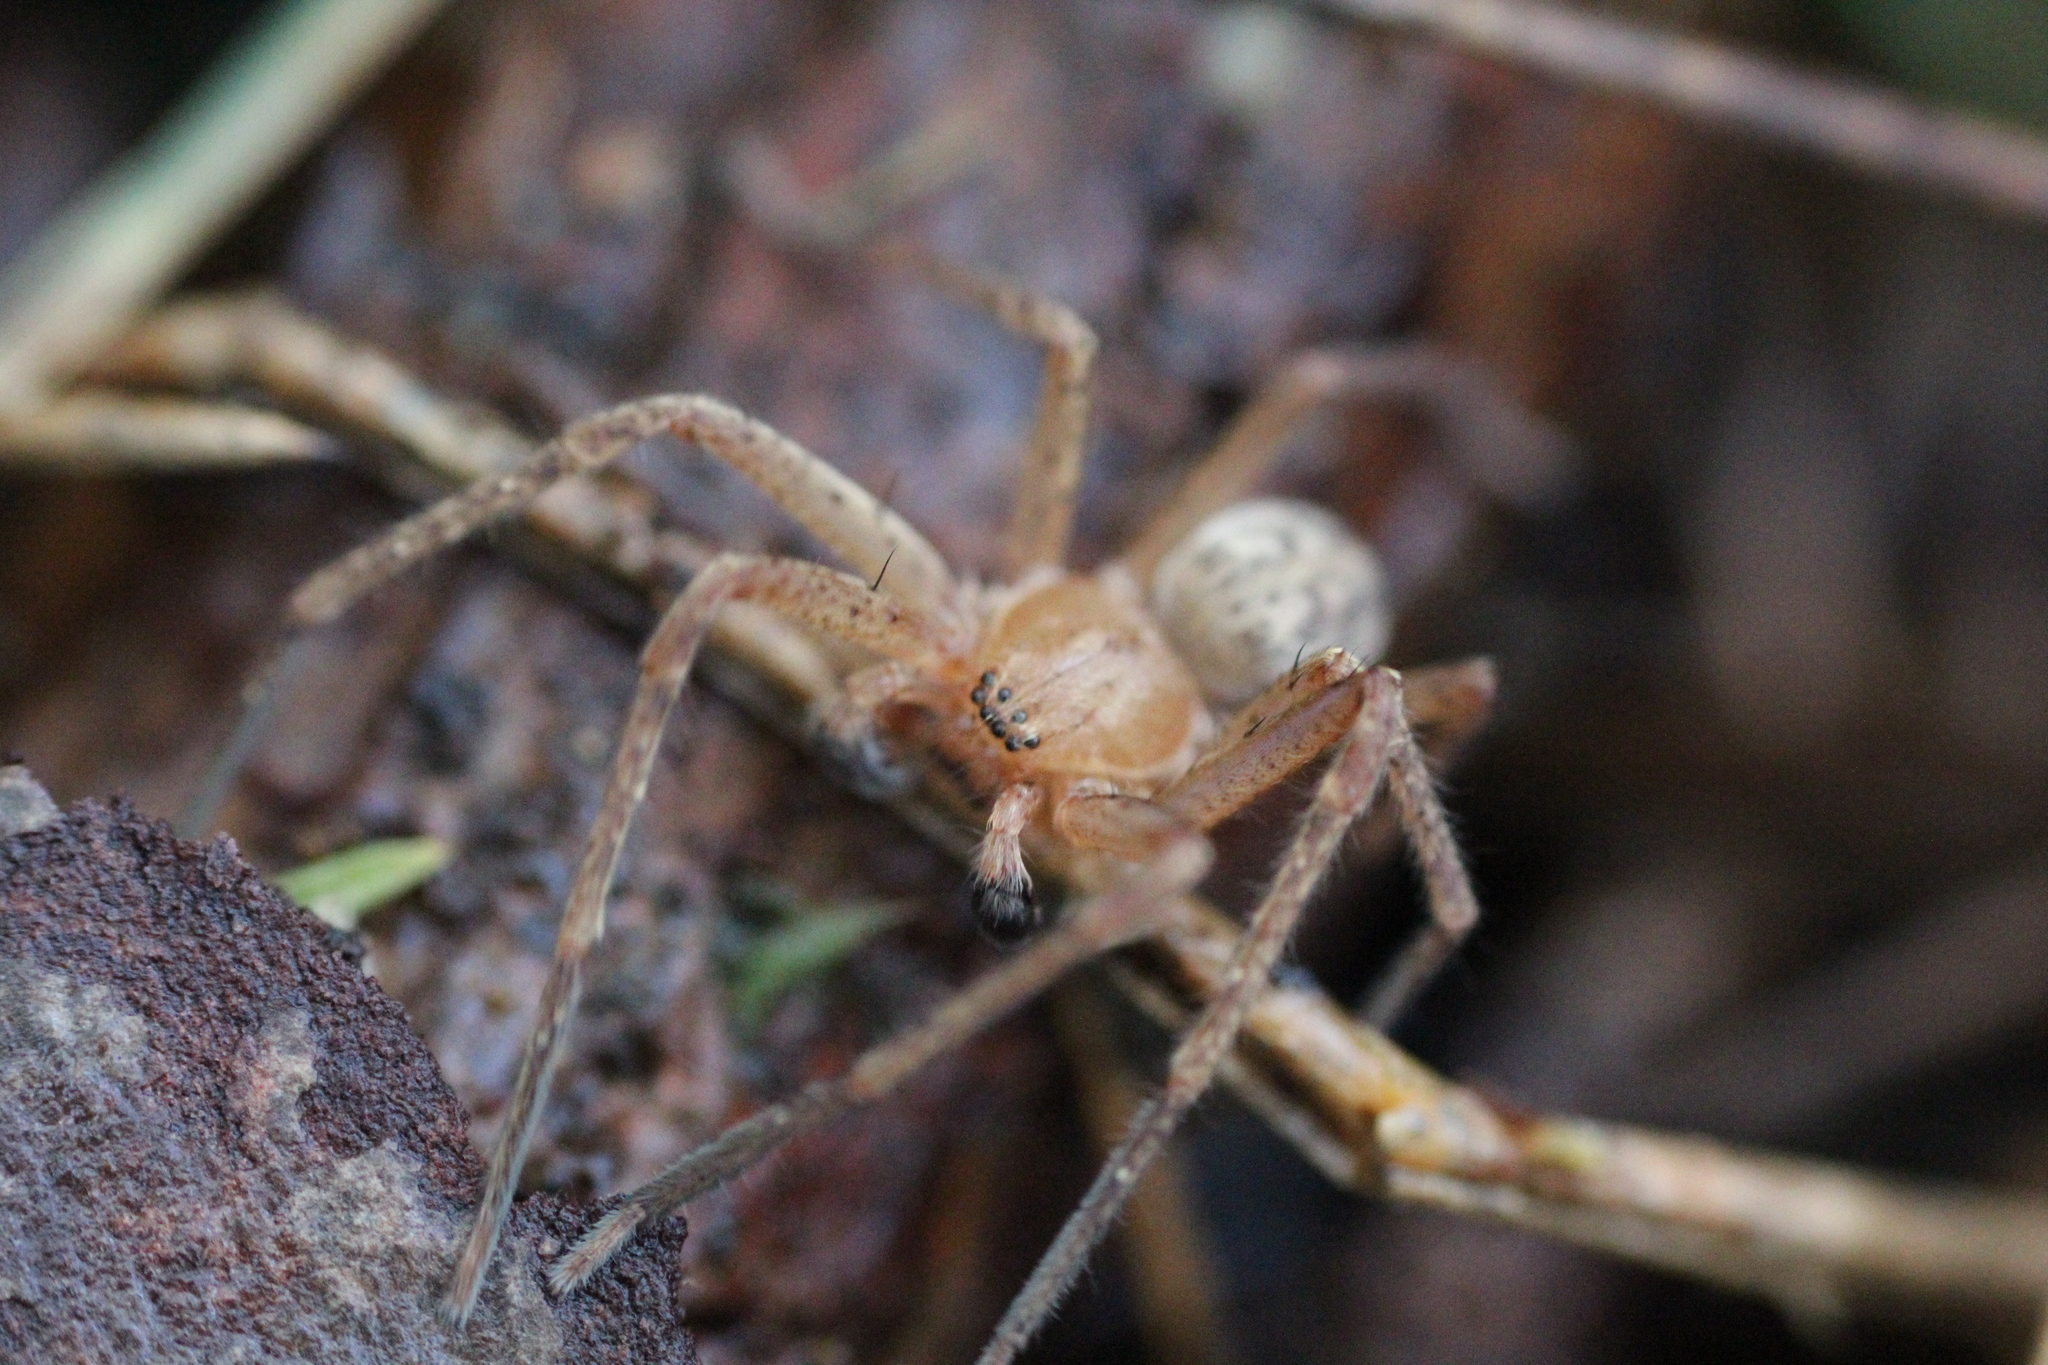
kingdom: Animalia
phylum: Arthropoda
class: Arachnida
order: Araneae
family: Sparassidae
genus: Olios
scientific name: Olios argelasius
